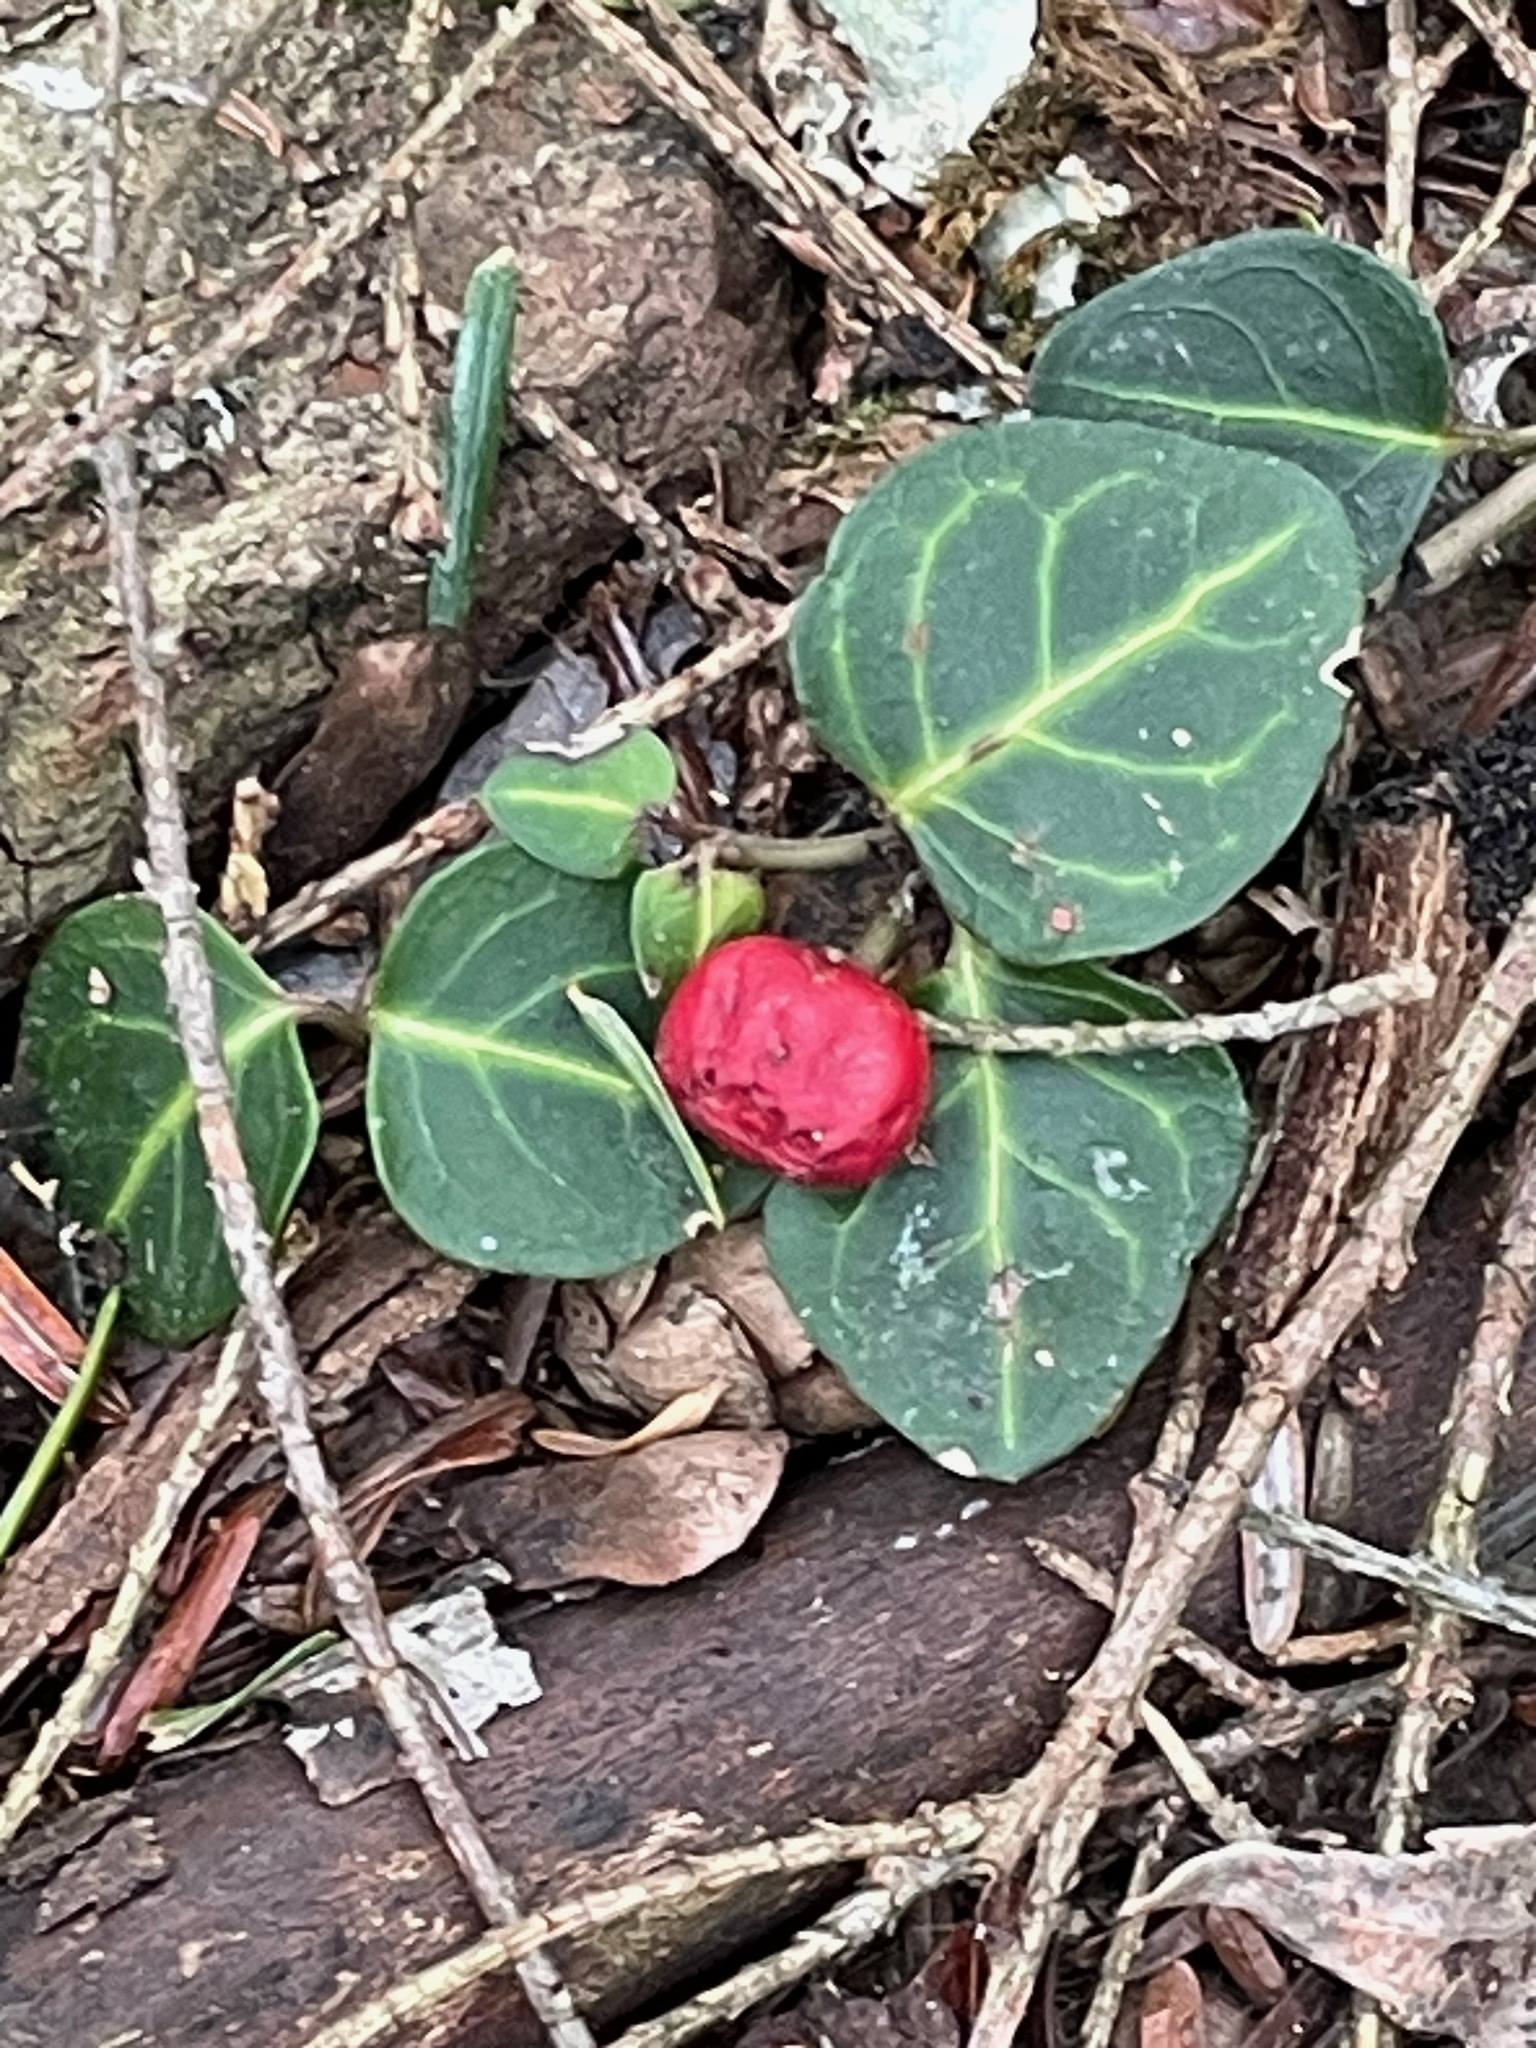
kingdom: Plantae
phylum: Tracheophyta
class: Magnoliopsida
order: Gentianales
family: Rubiaceae
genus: Mitchella
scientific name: Mitchella repens
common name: Partridge-berry
